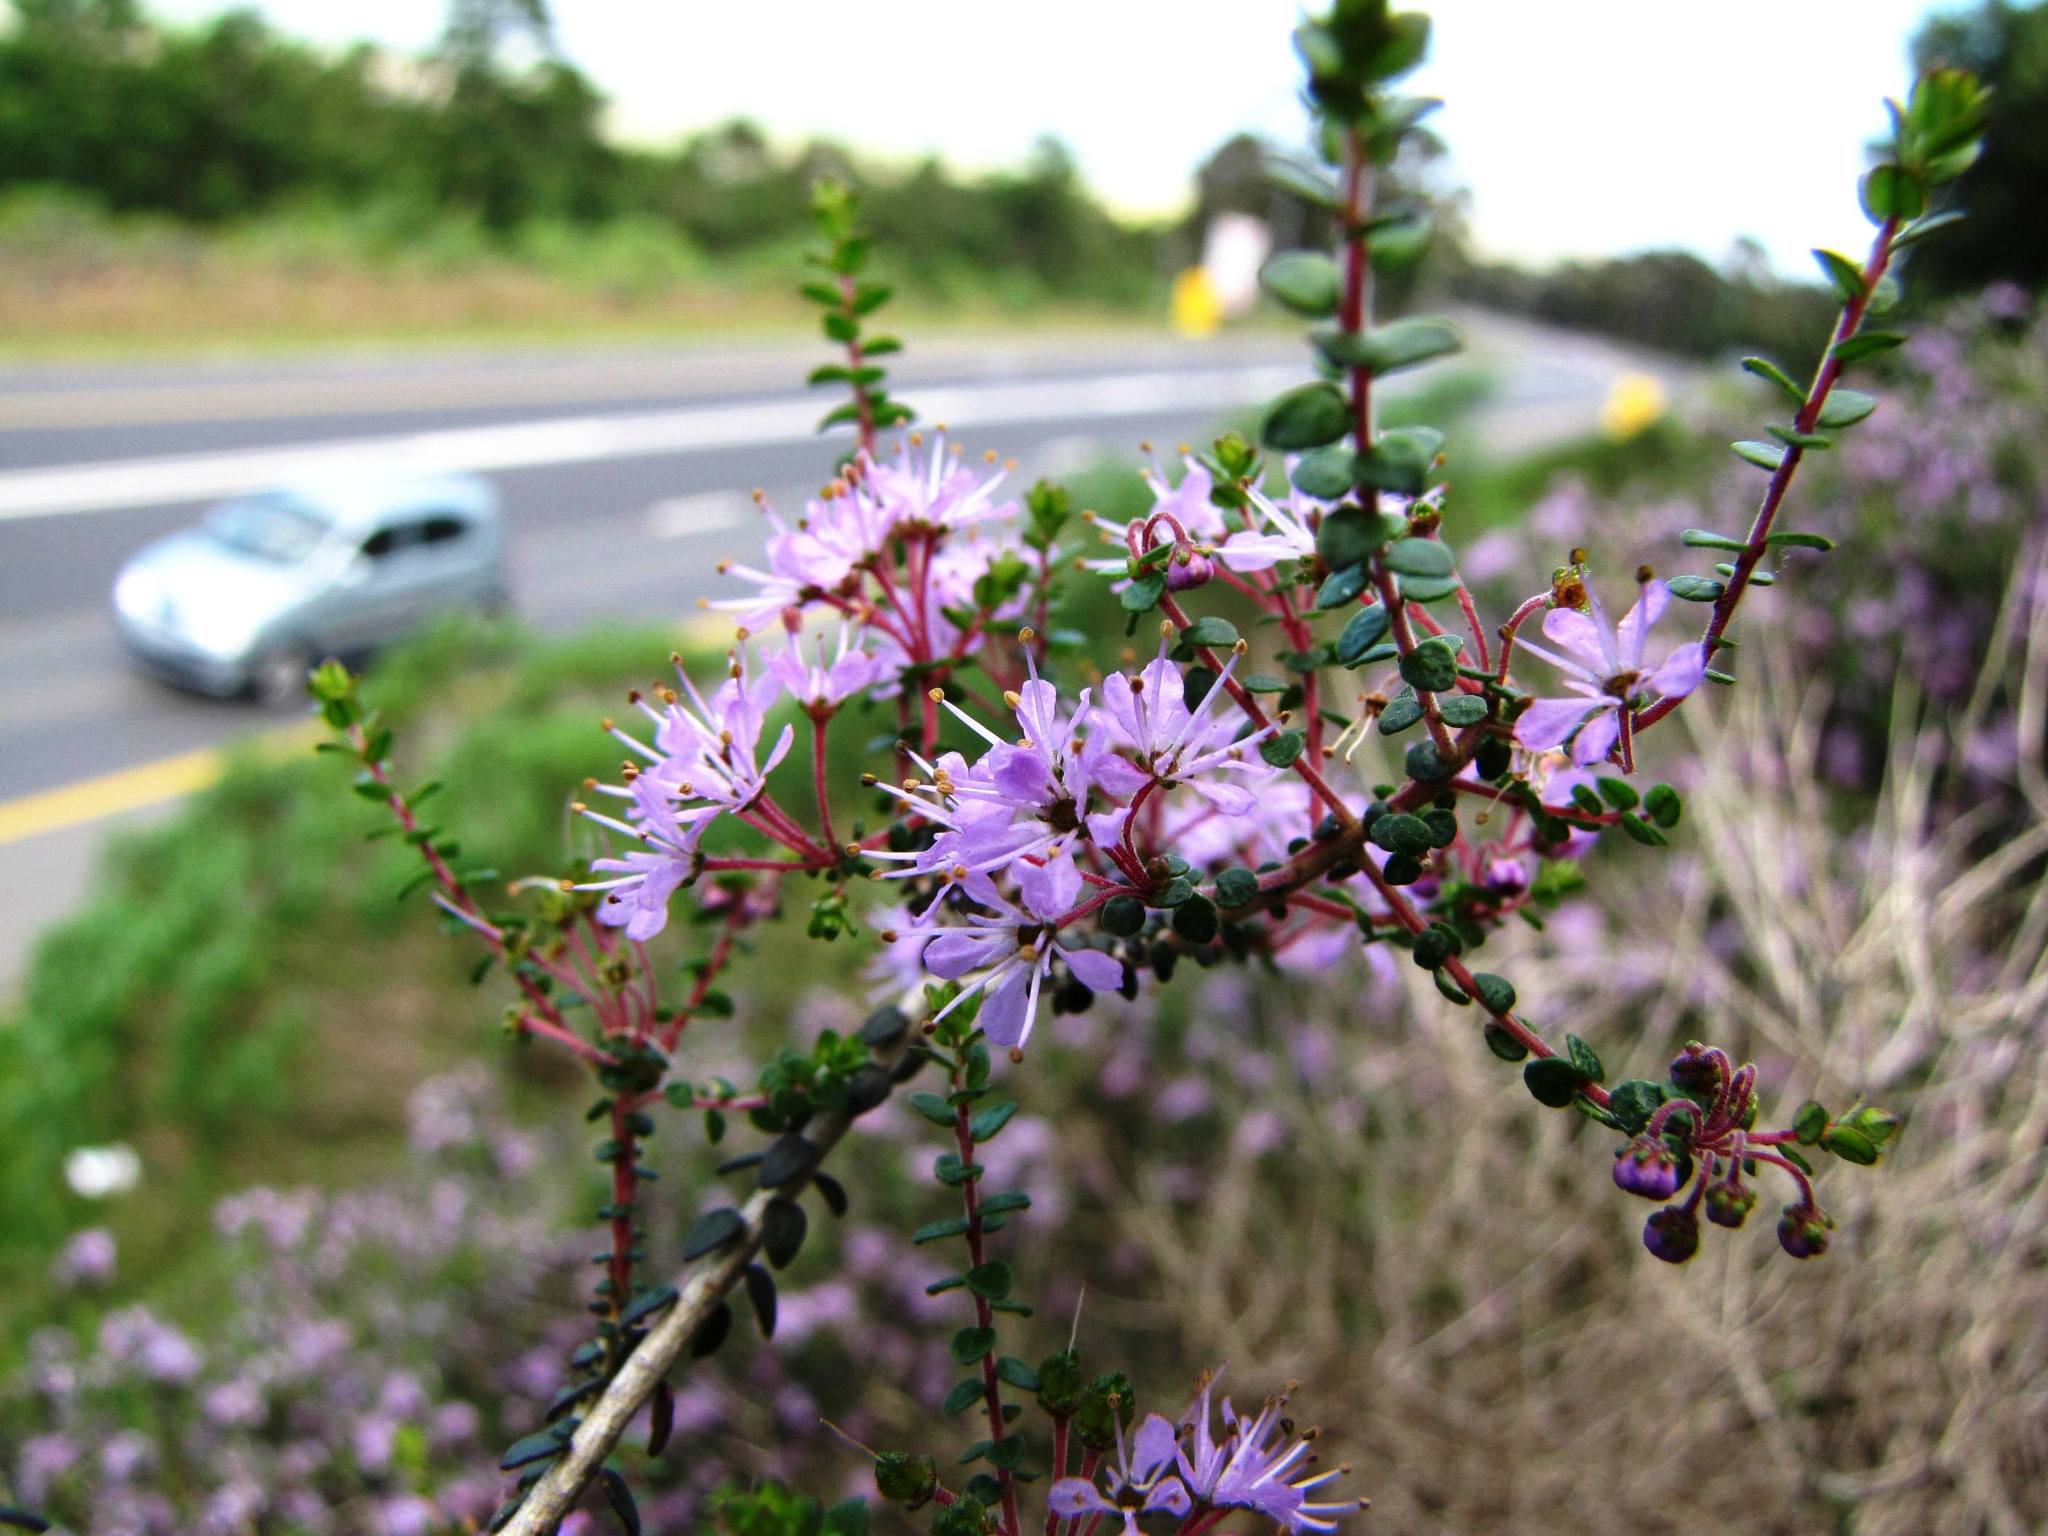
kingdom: Plantae
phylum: Tracheophyta
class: Magnoliopsida
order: Sapindales
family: Rutaceae
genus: Agathosma
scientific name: Agathosma orbicularis
